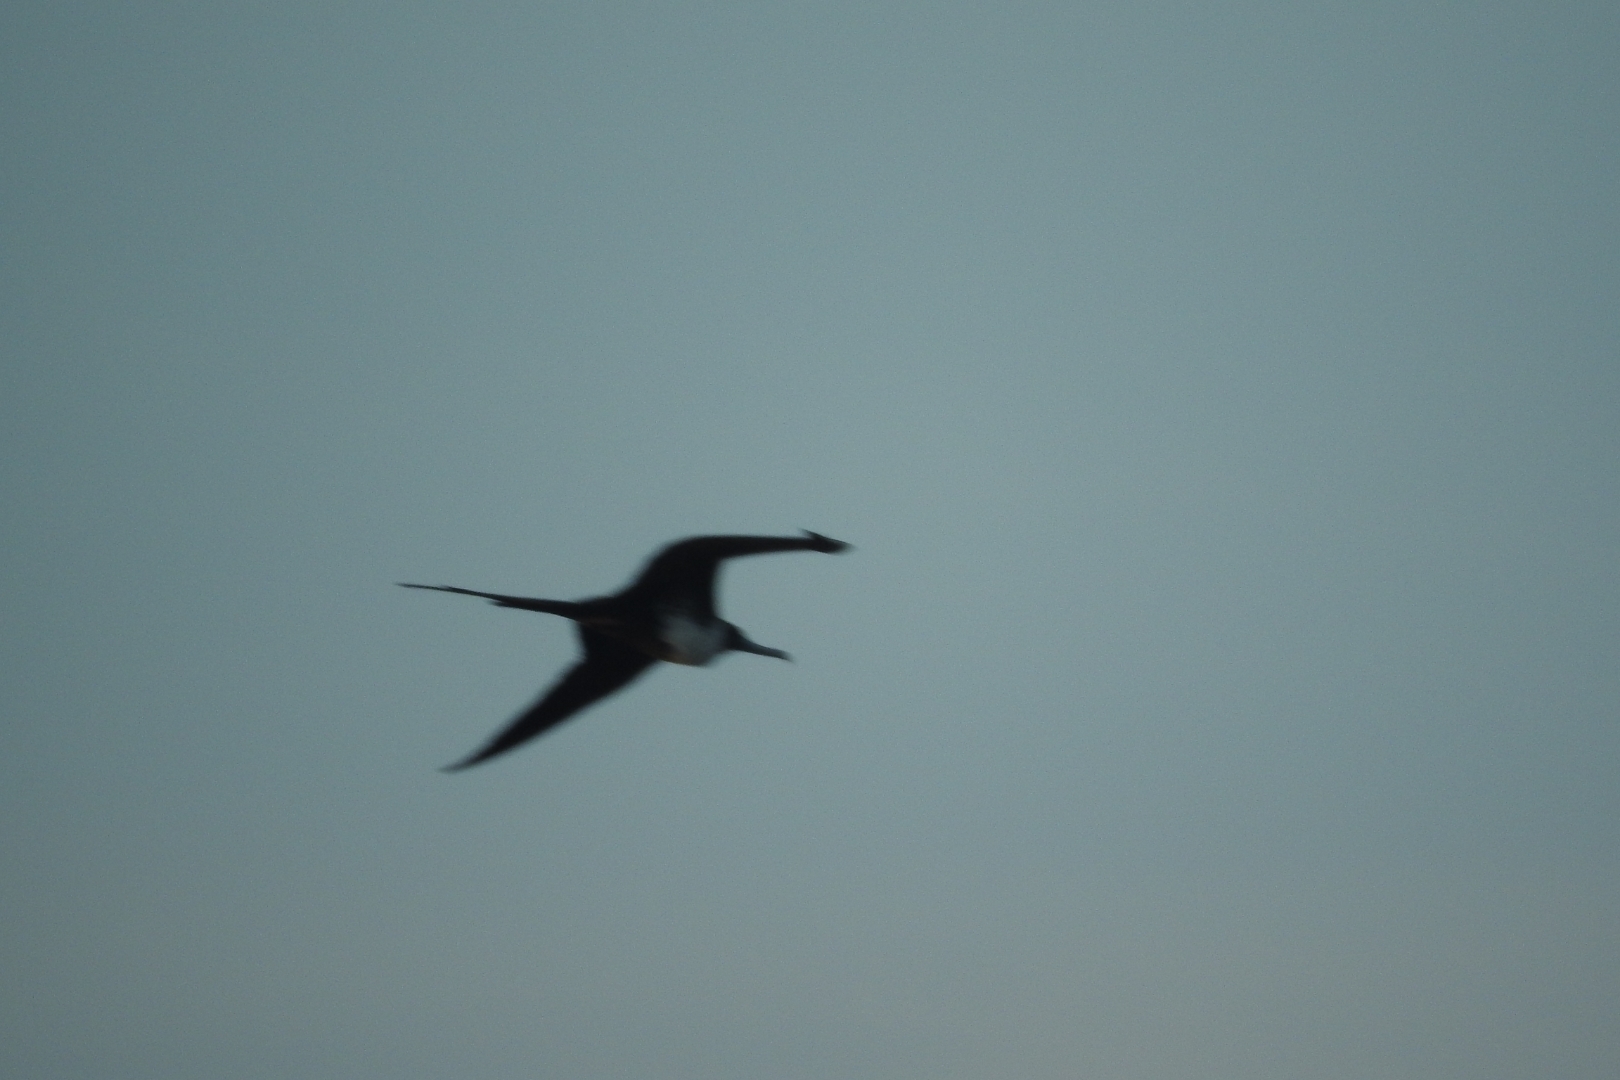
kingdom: Animalia
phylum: Chordata
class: Aves
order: Suliformes
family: Fregatidae
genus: Fregata
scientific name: Fregata magnificens
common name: Magnificent frigatebird
